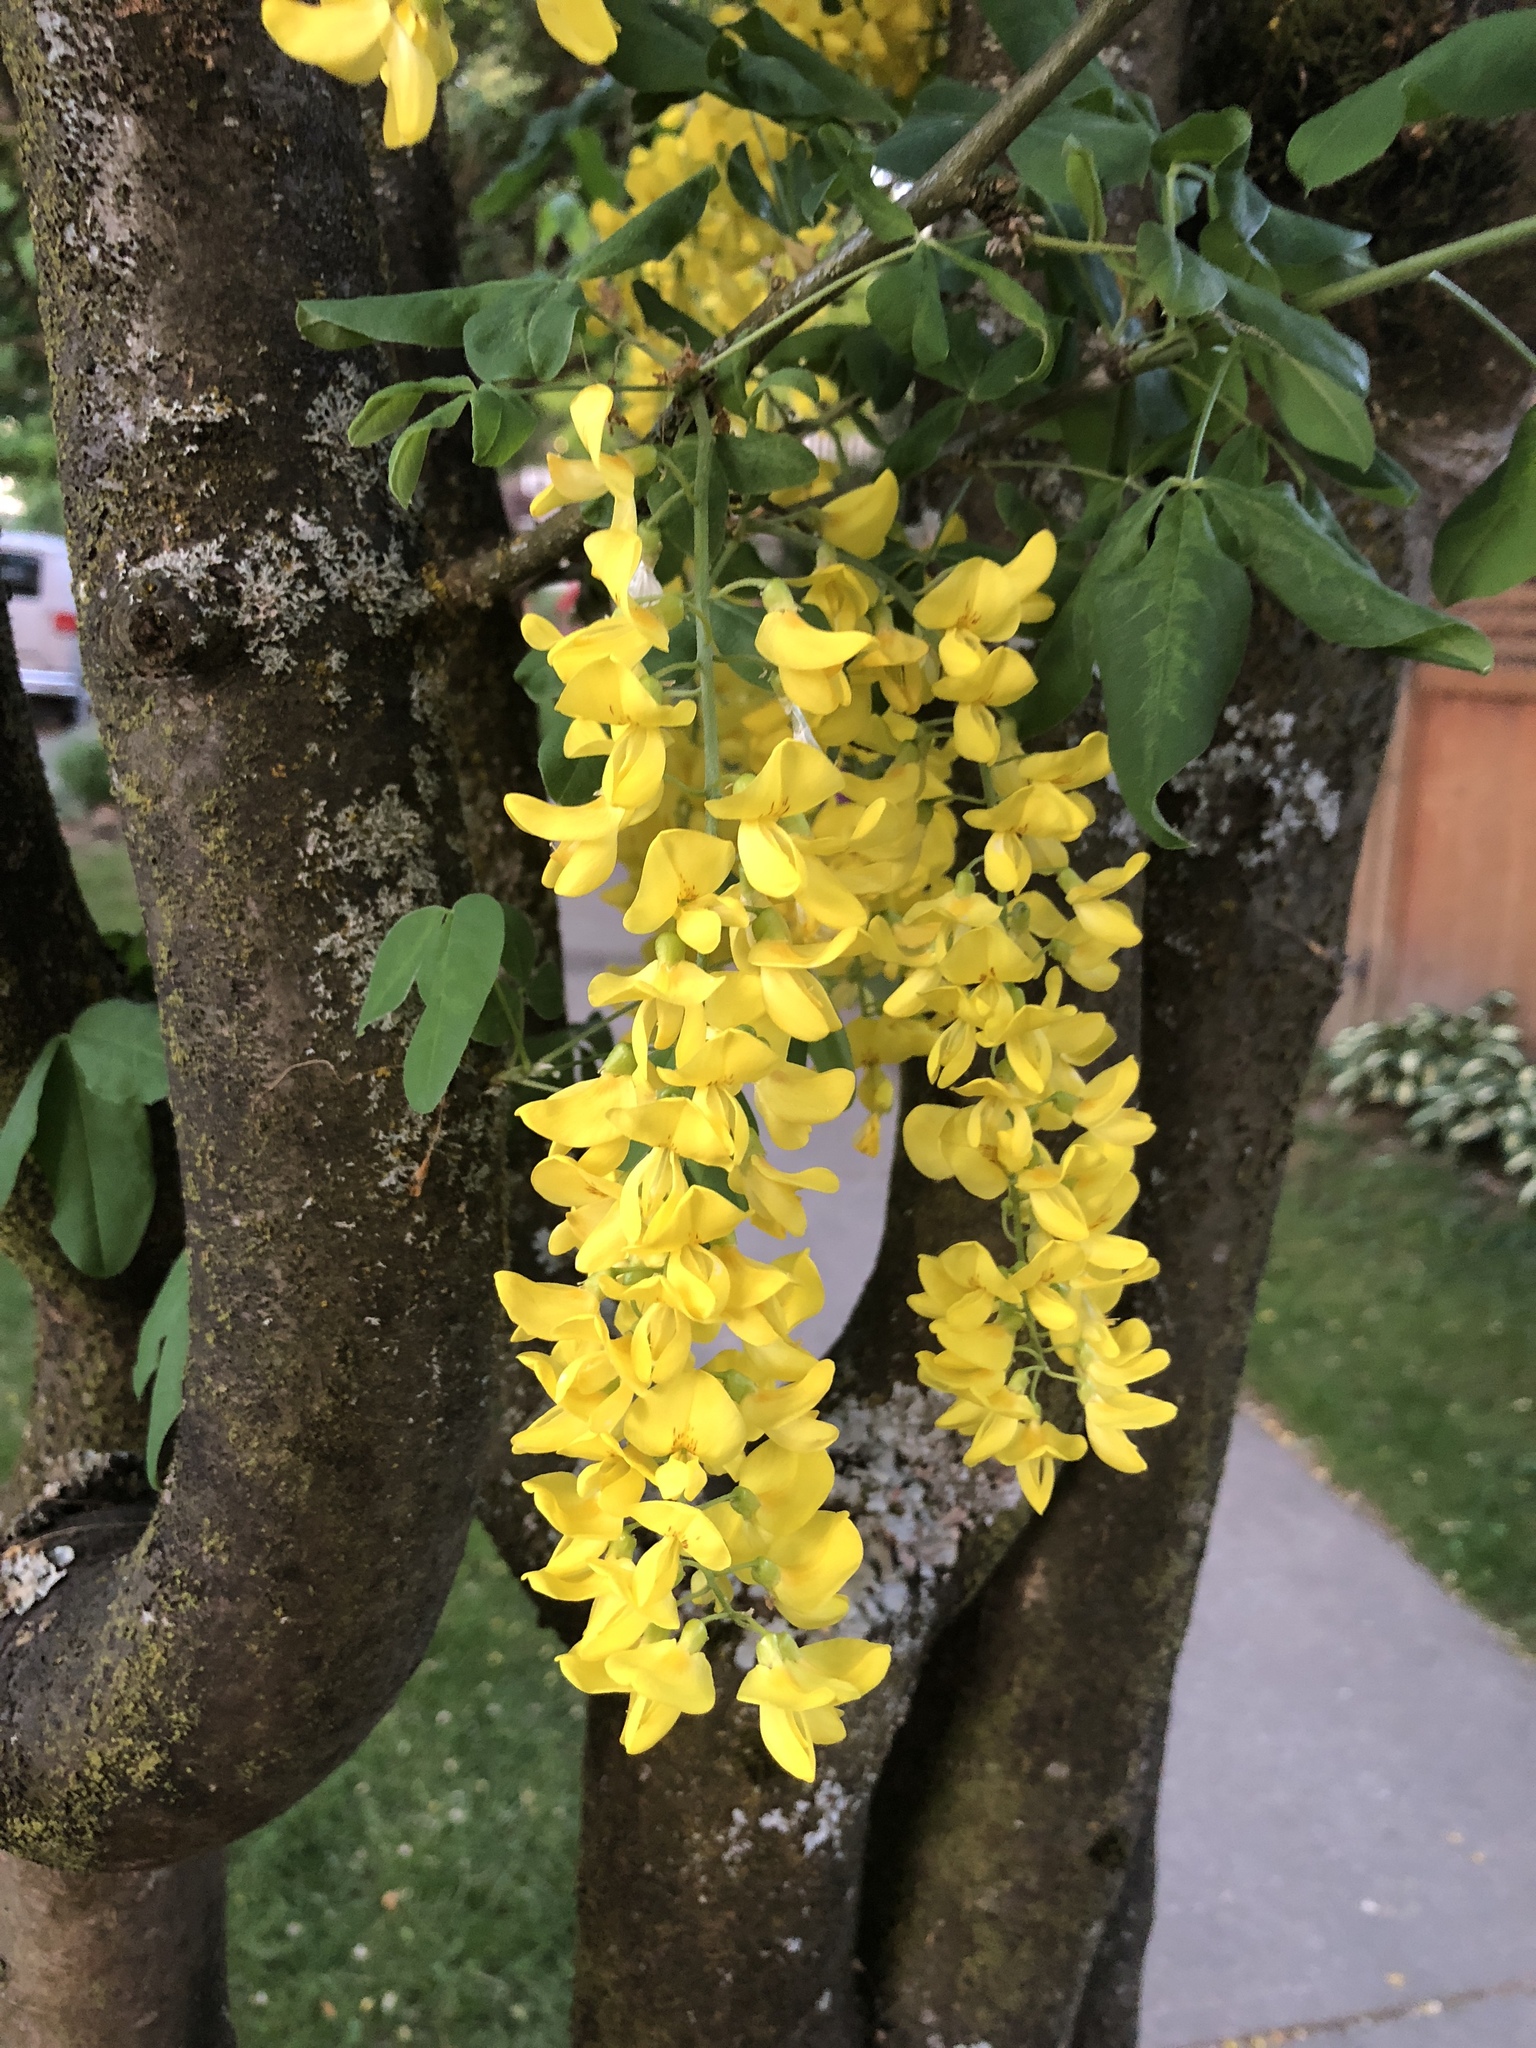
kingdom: Plantae
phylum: Tracheophyta
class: Magnoliopsida
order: Fabales
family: Fabaceae
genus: Laburnum
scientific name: Laburnum anagyroides
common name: Laburnum
